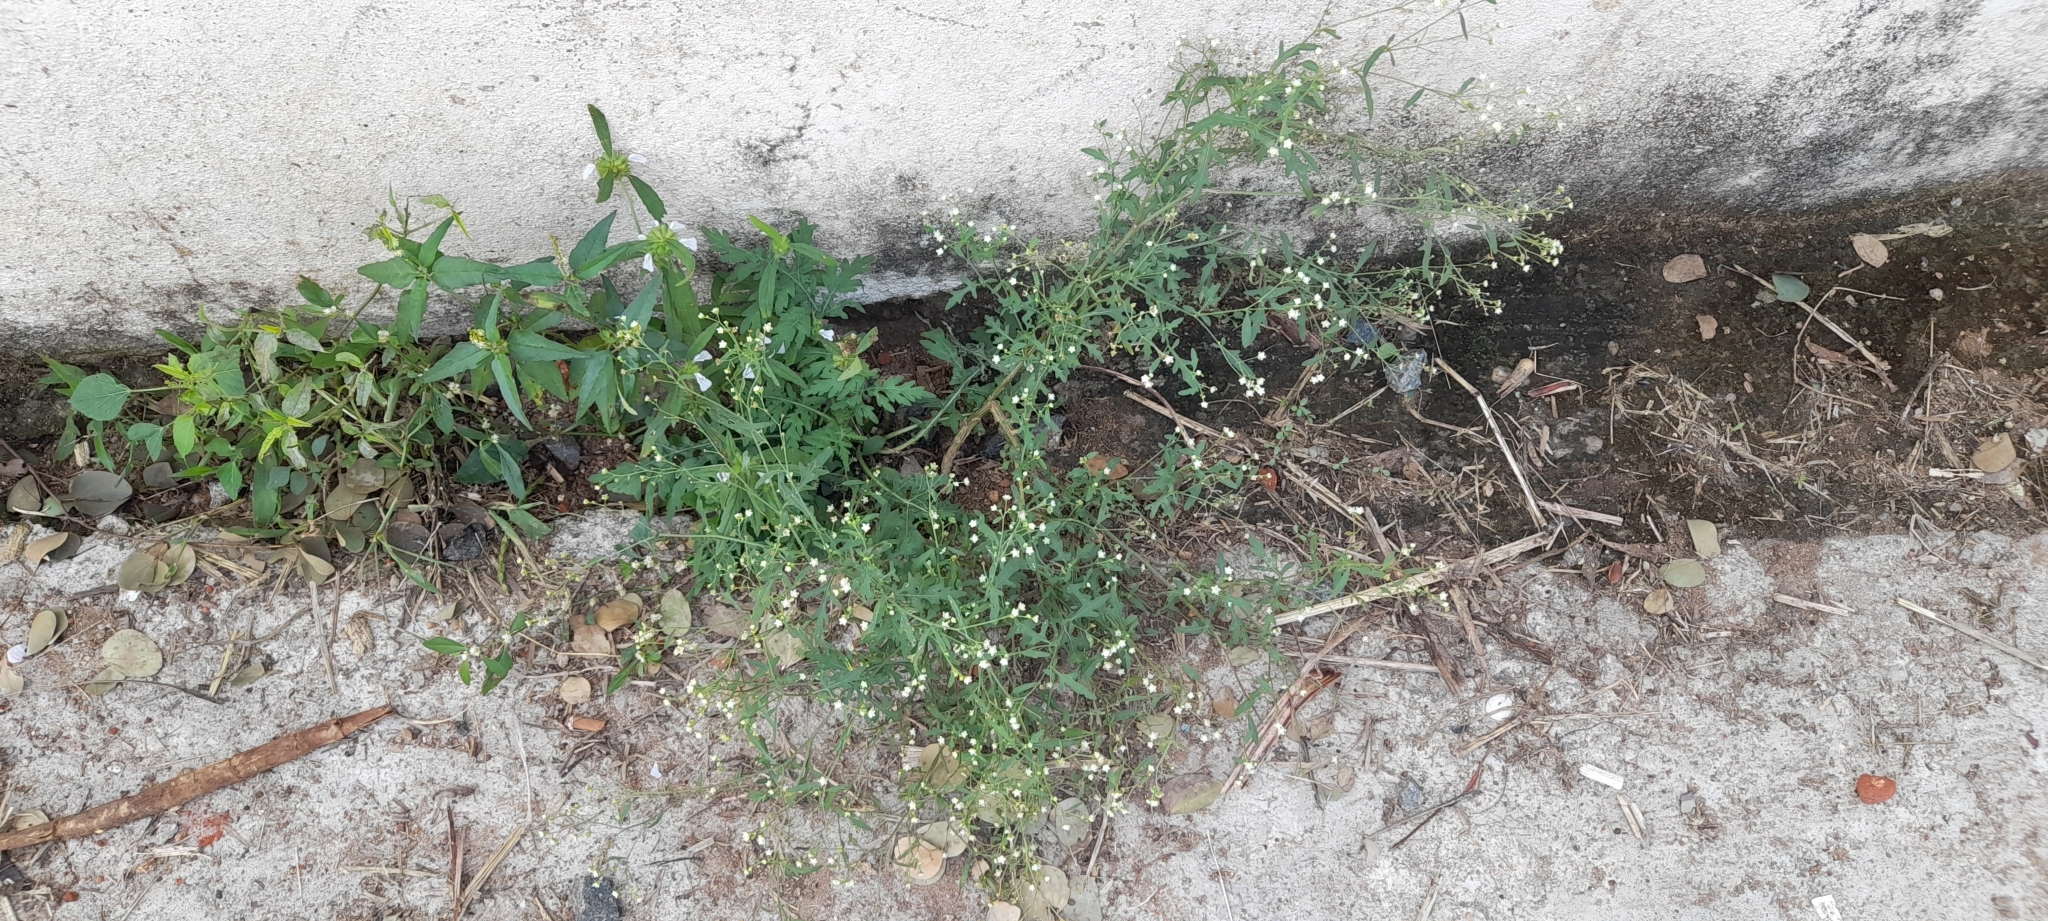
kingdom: Plantae
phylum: Tracheophyta
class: Magnoliopsida
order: Asterales
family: Asteraceae
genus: Parthenium
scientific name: Parthenium hysterophorus
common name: Santa maria feverfew
